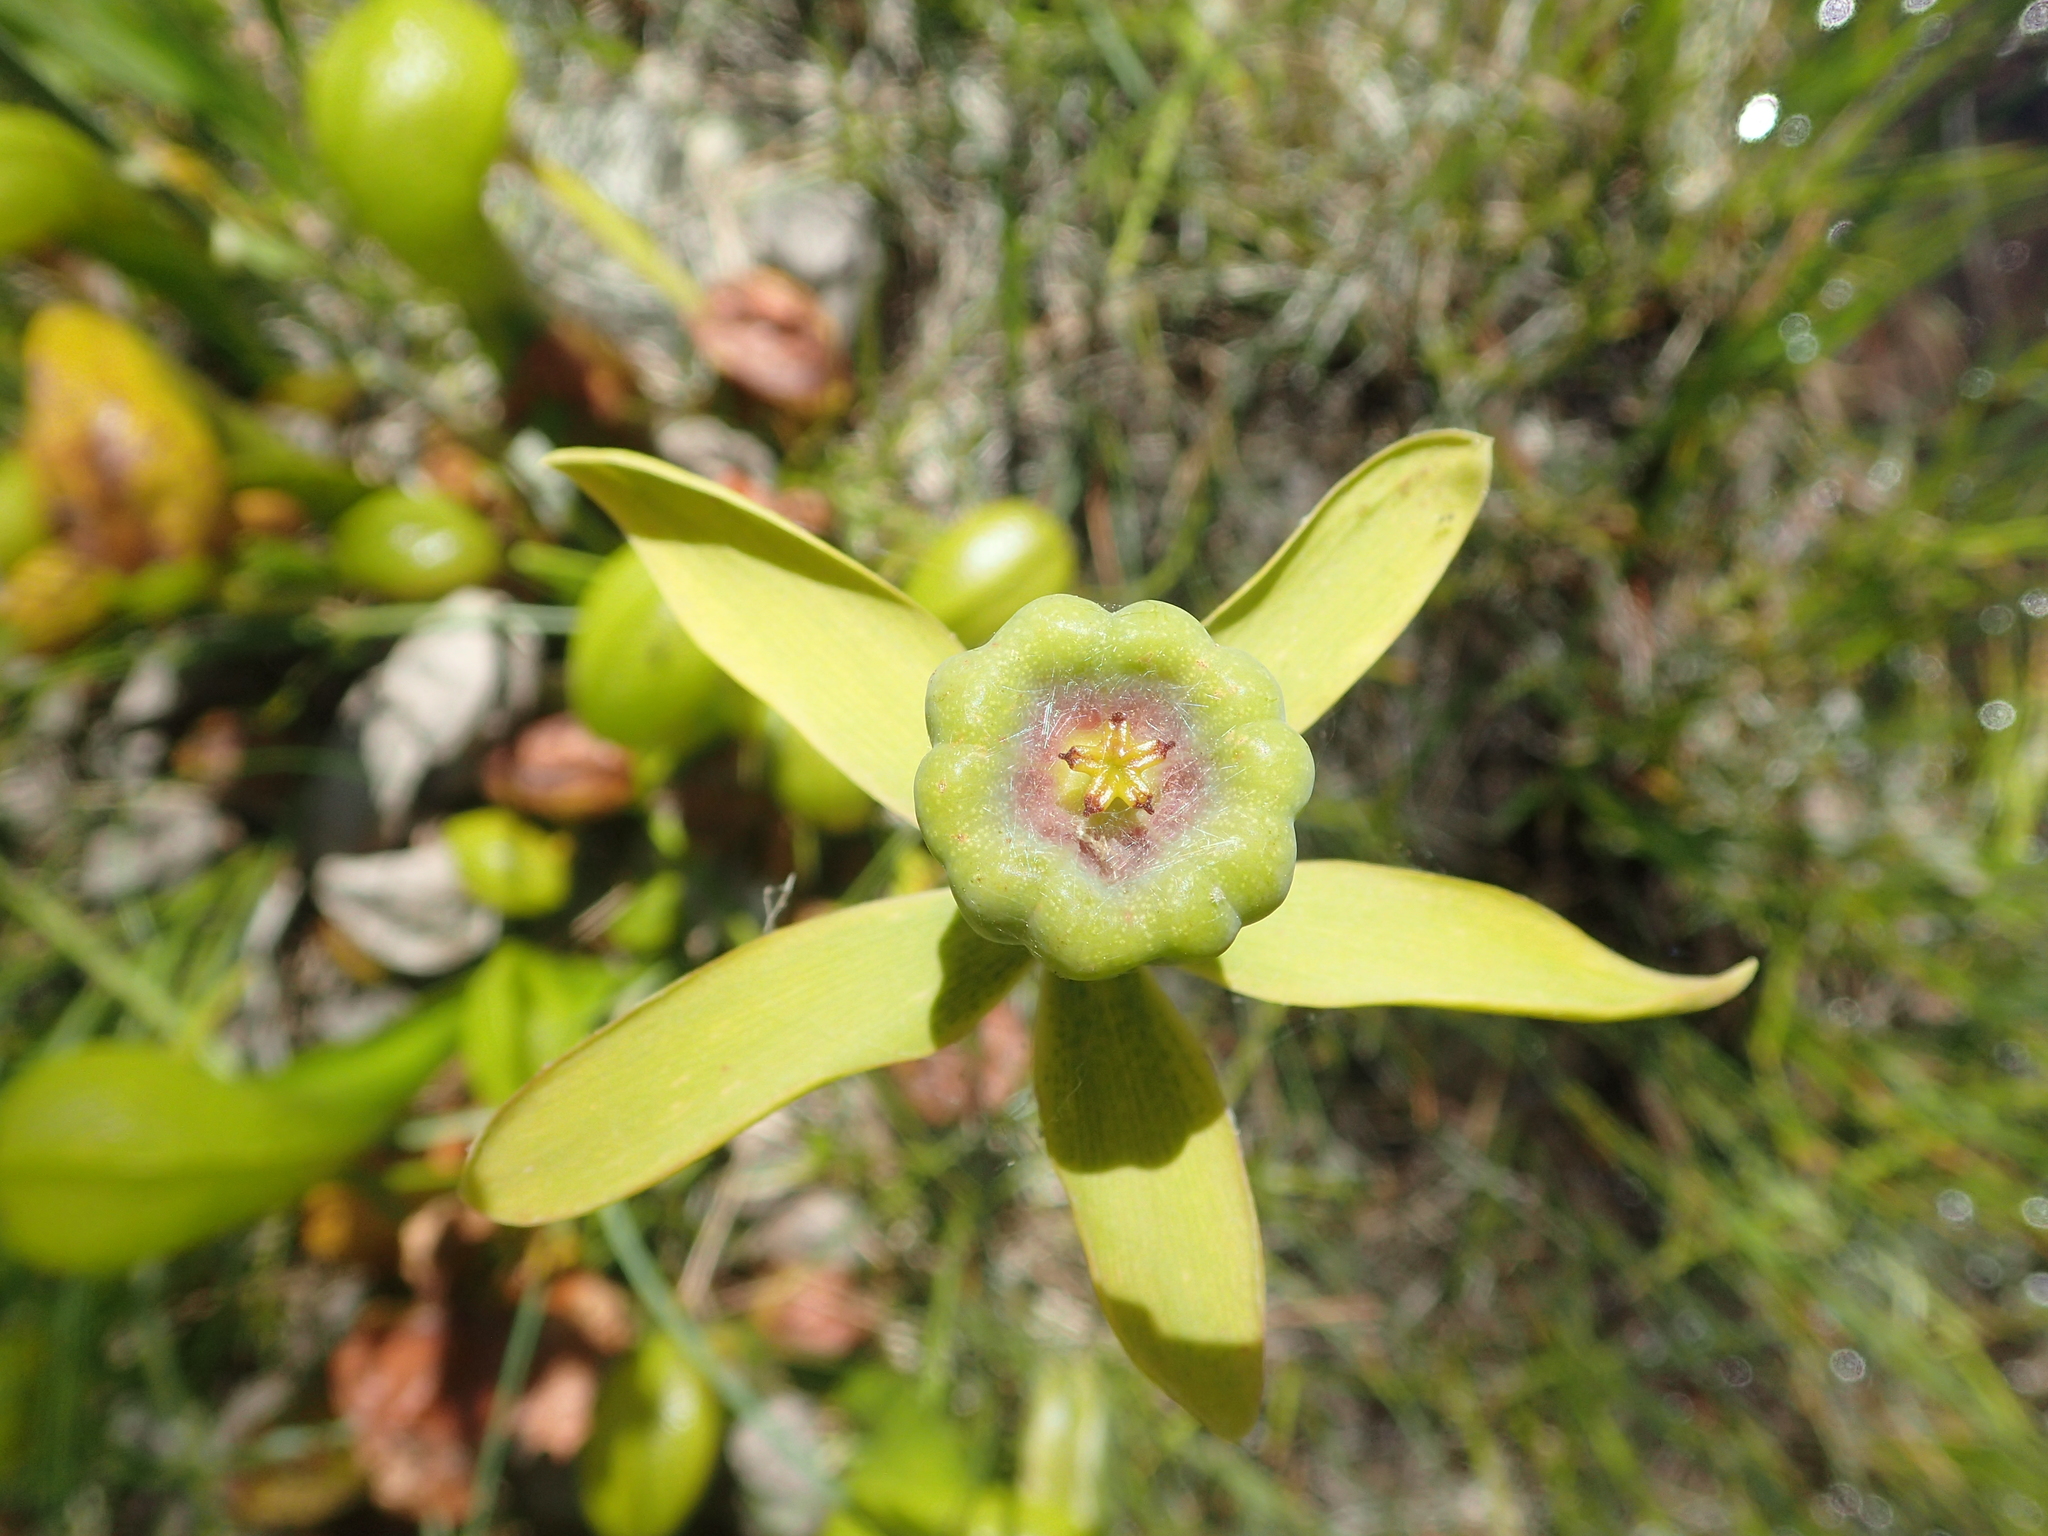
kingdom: Plantae
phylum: Tracheophyta
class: Magnoliopsida
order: Ericales
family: Sarraceniaceae
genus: Darlingtonia
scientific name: Darlingtonia californica
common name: California pitcher plant
